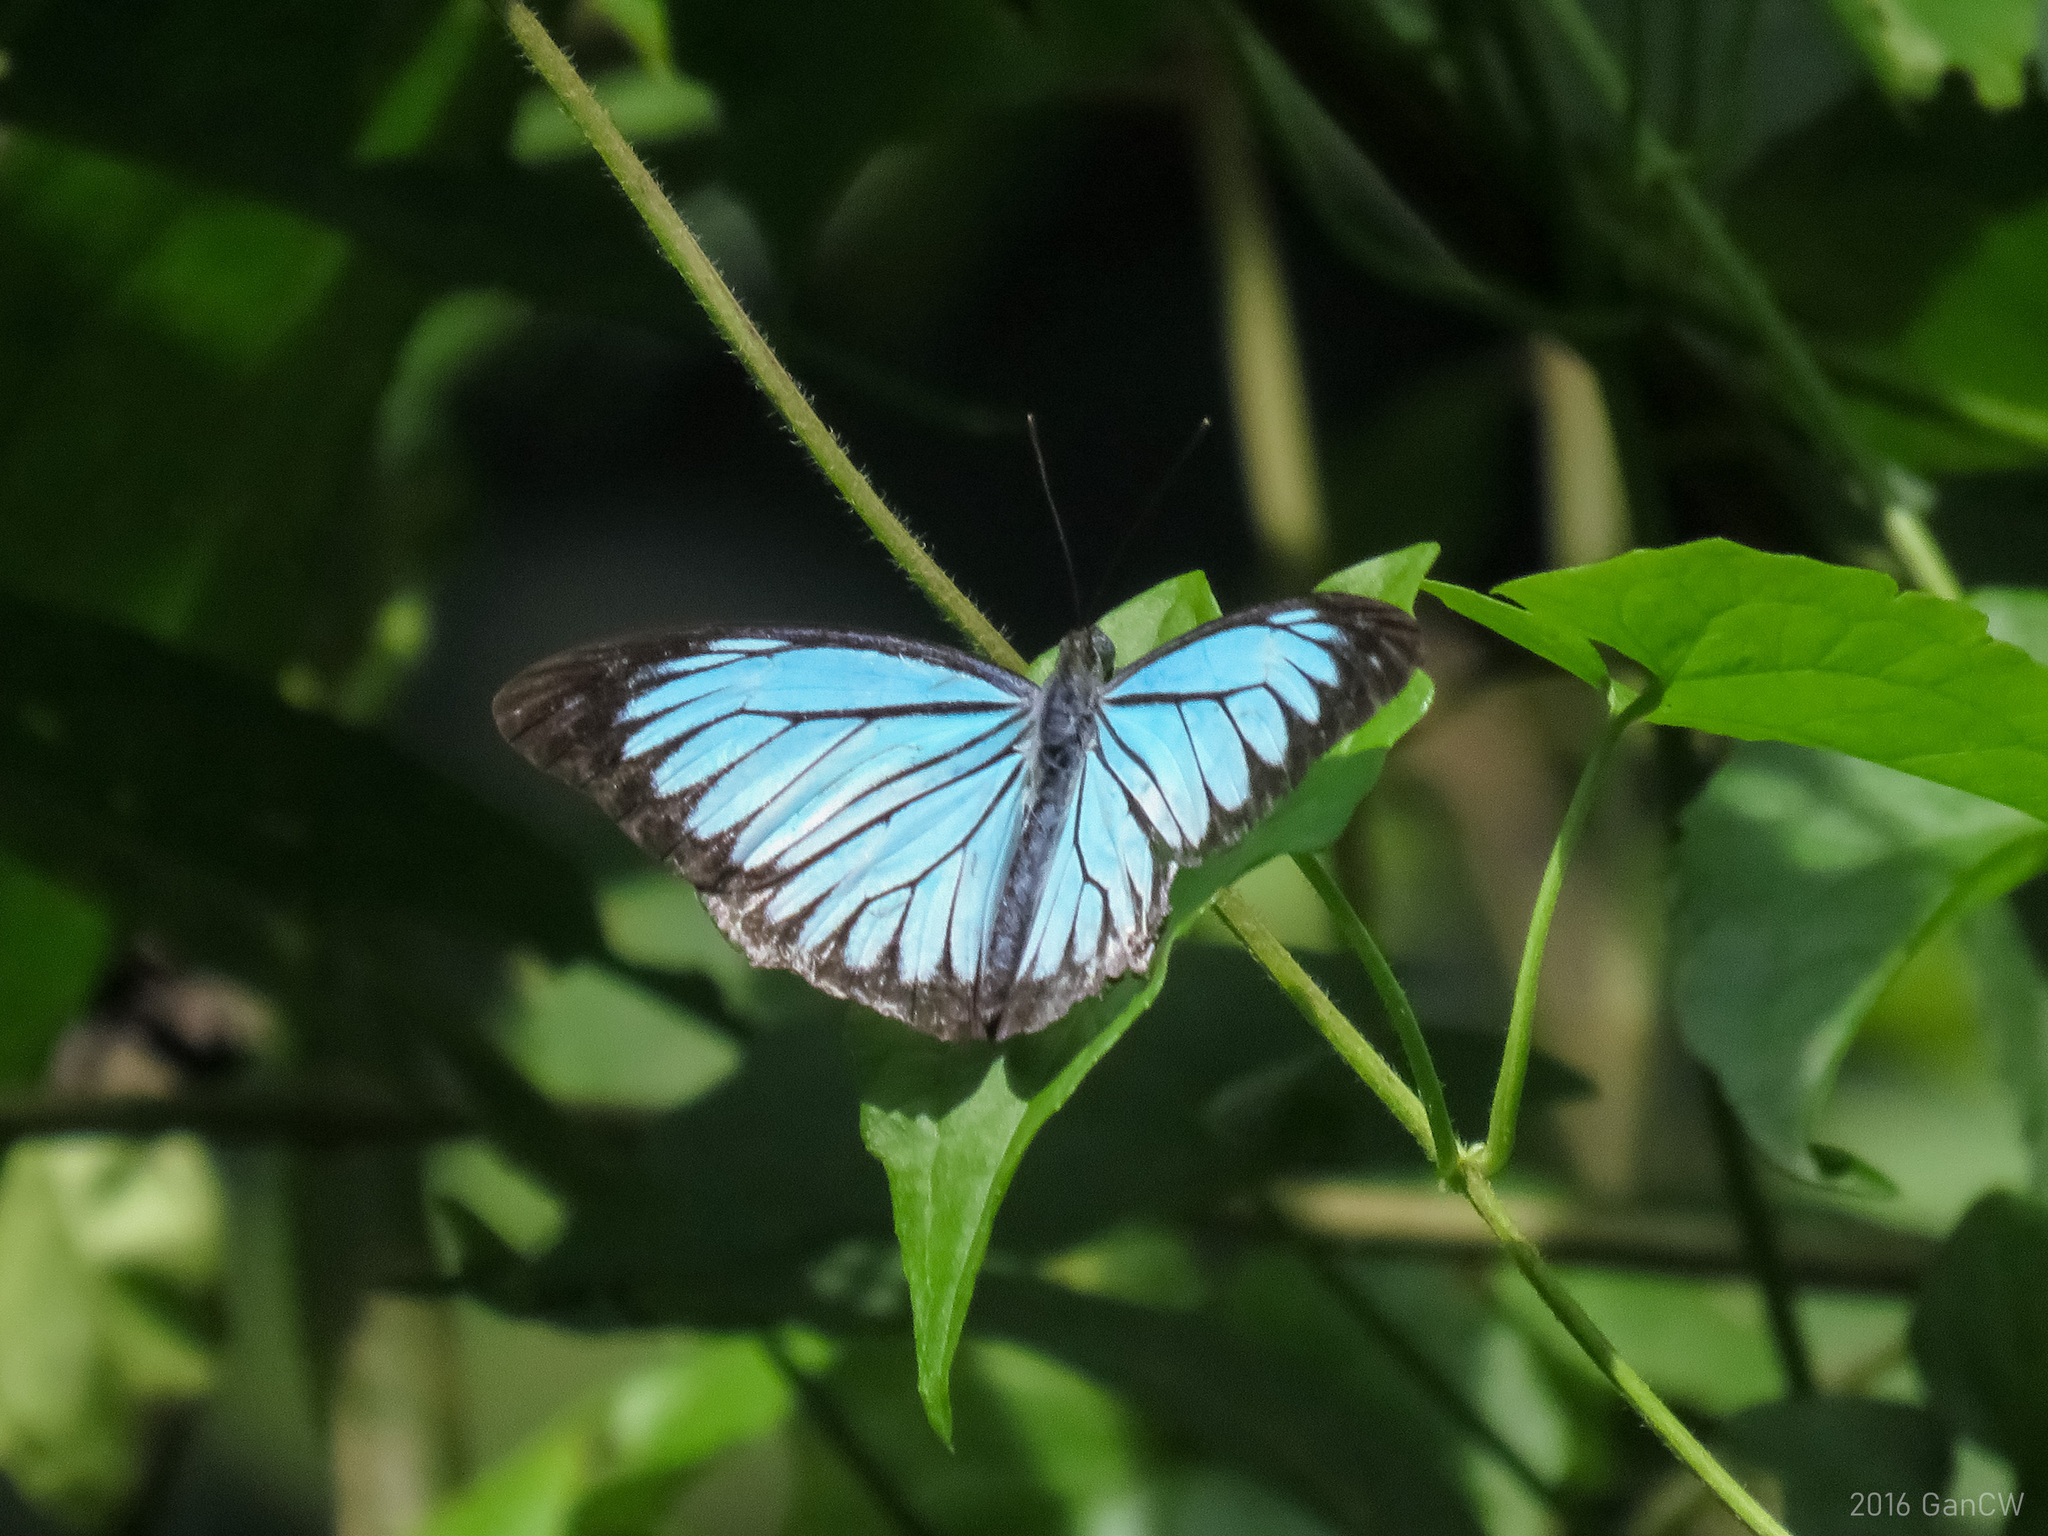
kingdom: Animalia
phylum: Arthropoda
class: Insecta
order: Lepidoptera
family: Pieridae
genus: Pareronia
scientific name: Pareronia valeria
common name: Common wanderer?
